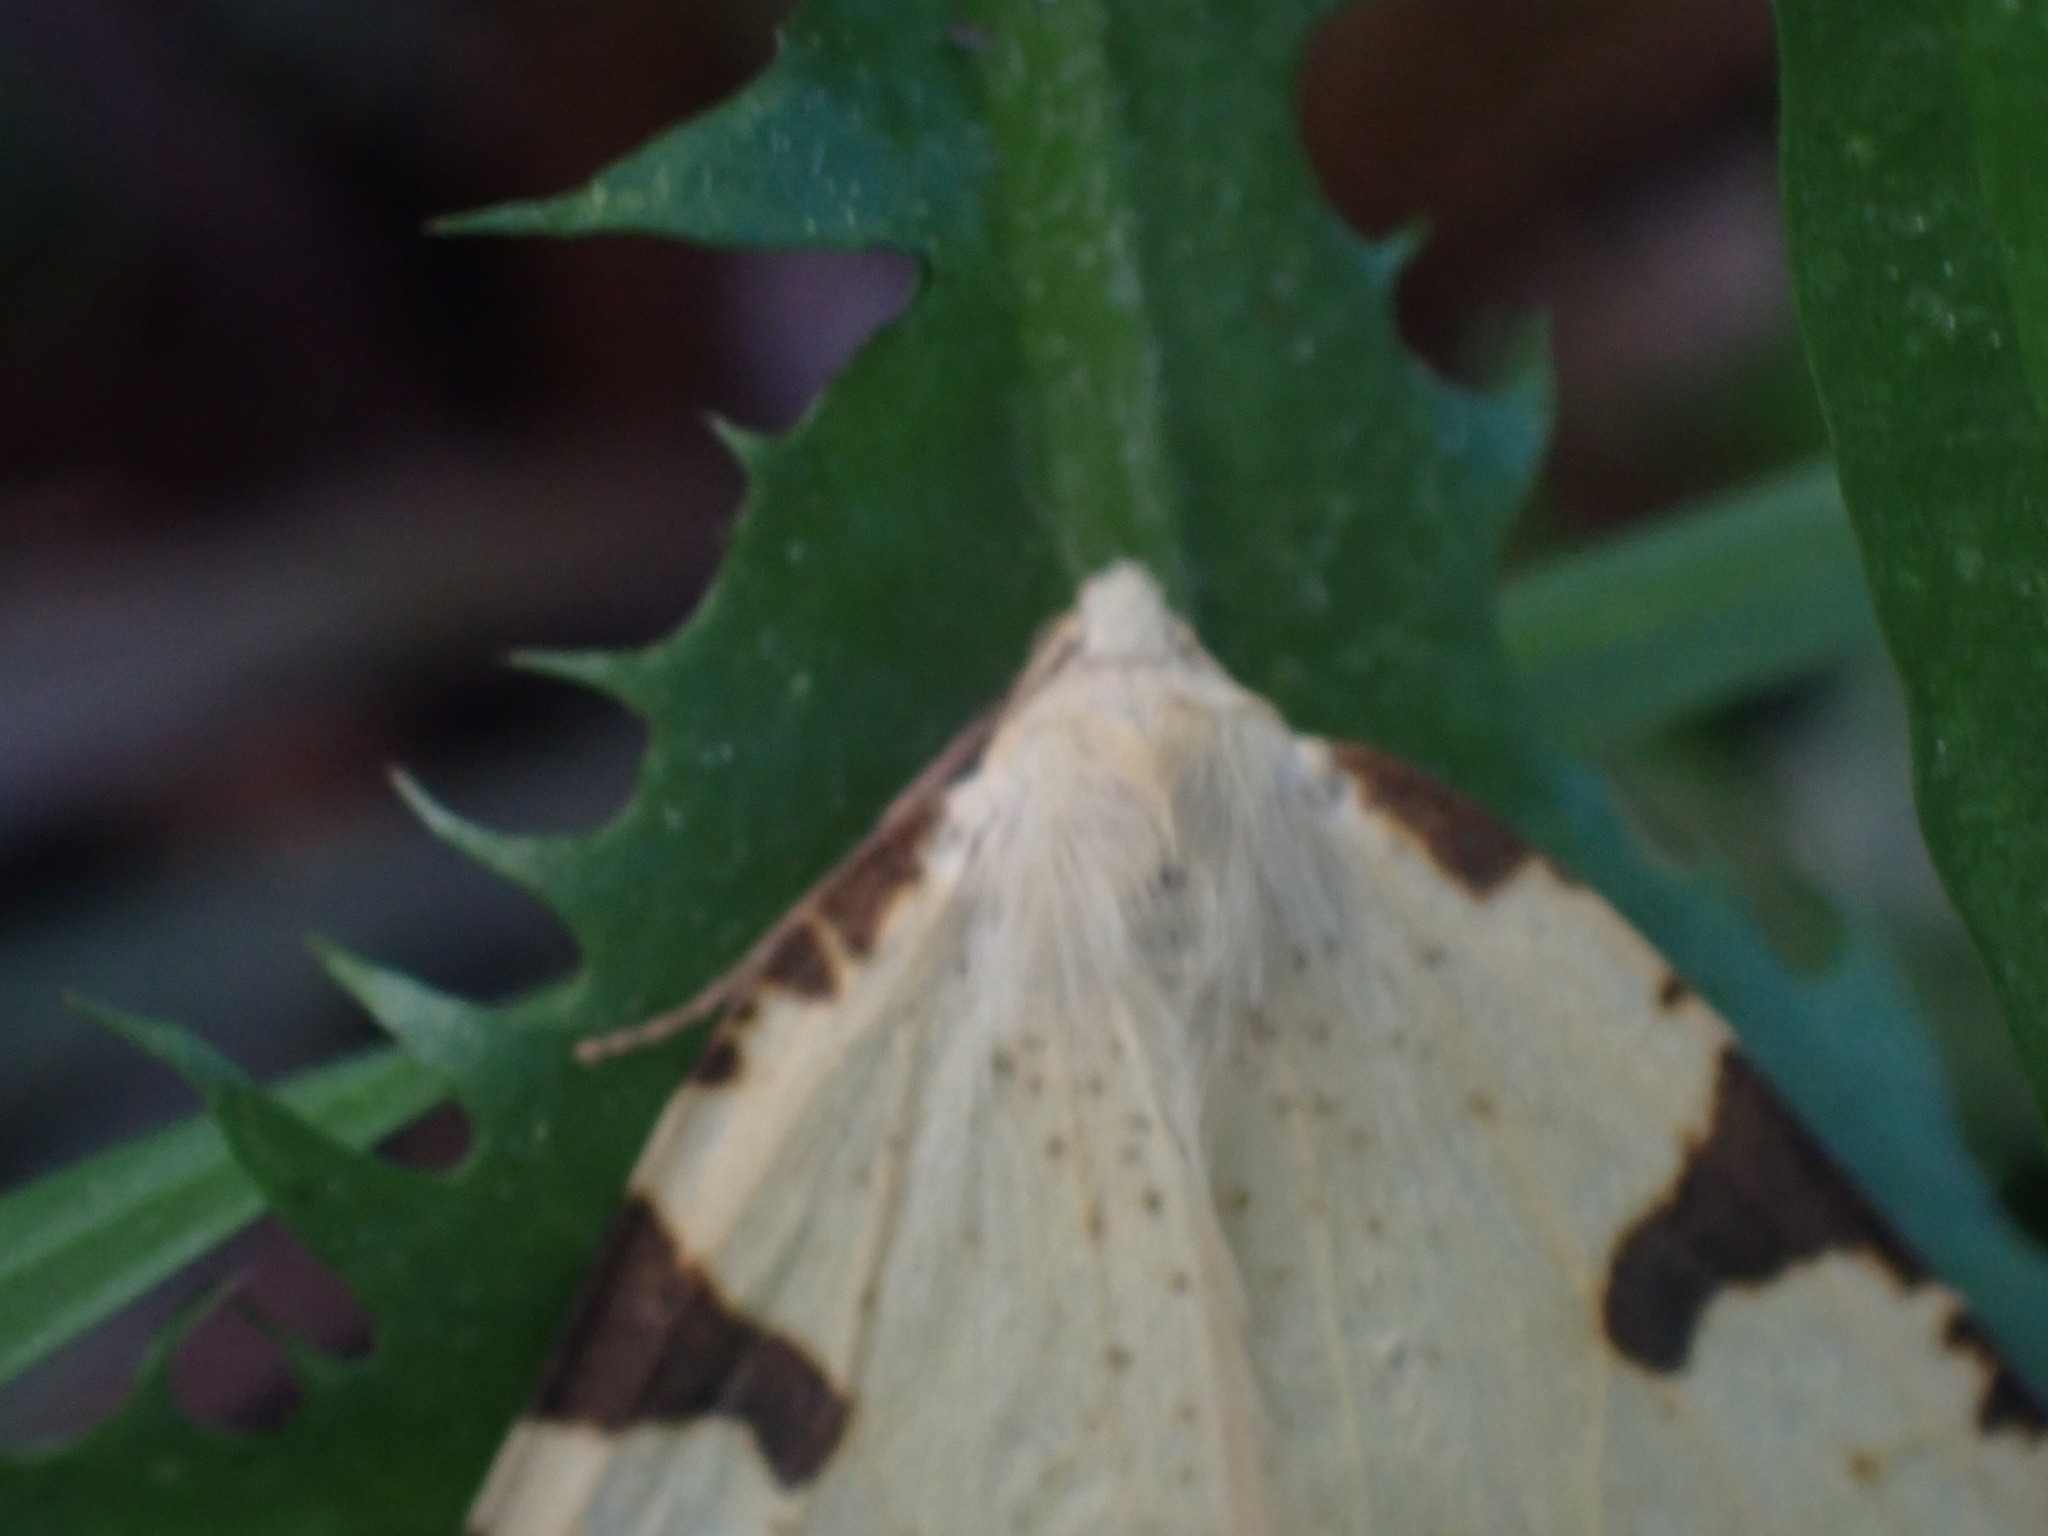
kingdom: Animalia
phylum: Arthropoda
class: Insecta
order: Lepidoptera
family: Geometridae
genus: Neoterpes
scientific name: Neoterpes trianguliferata
